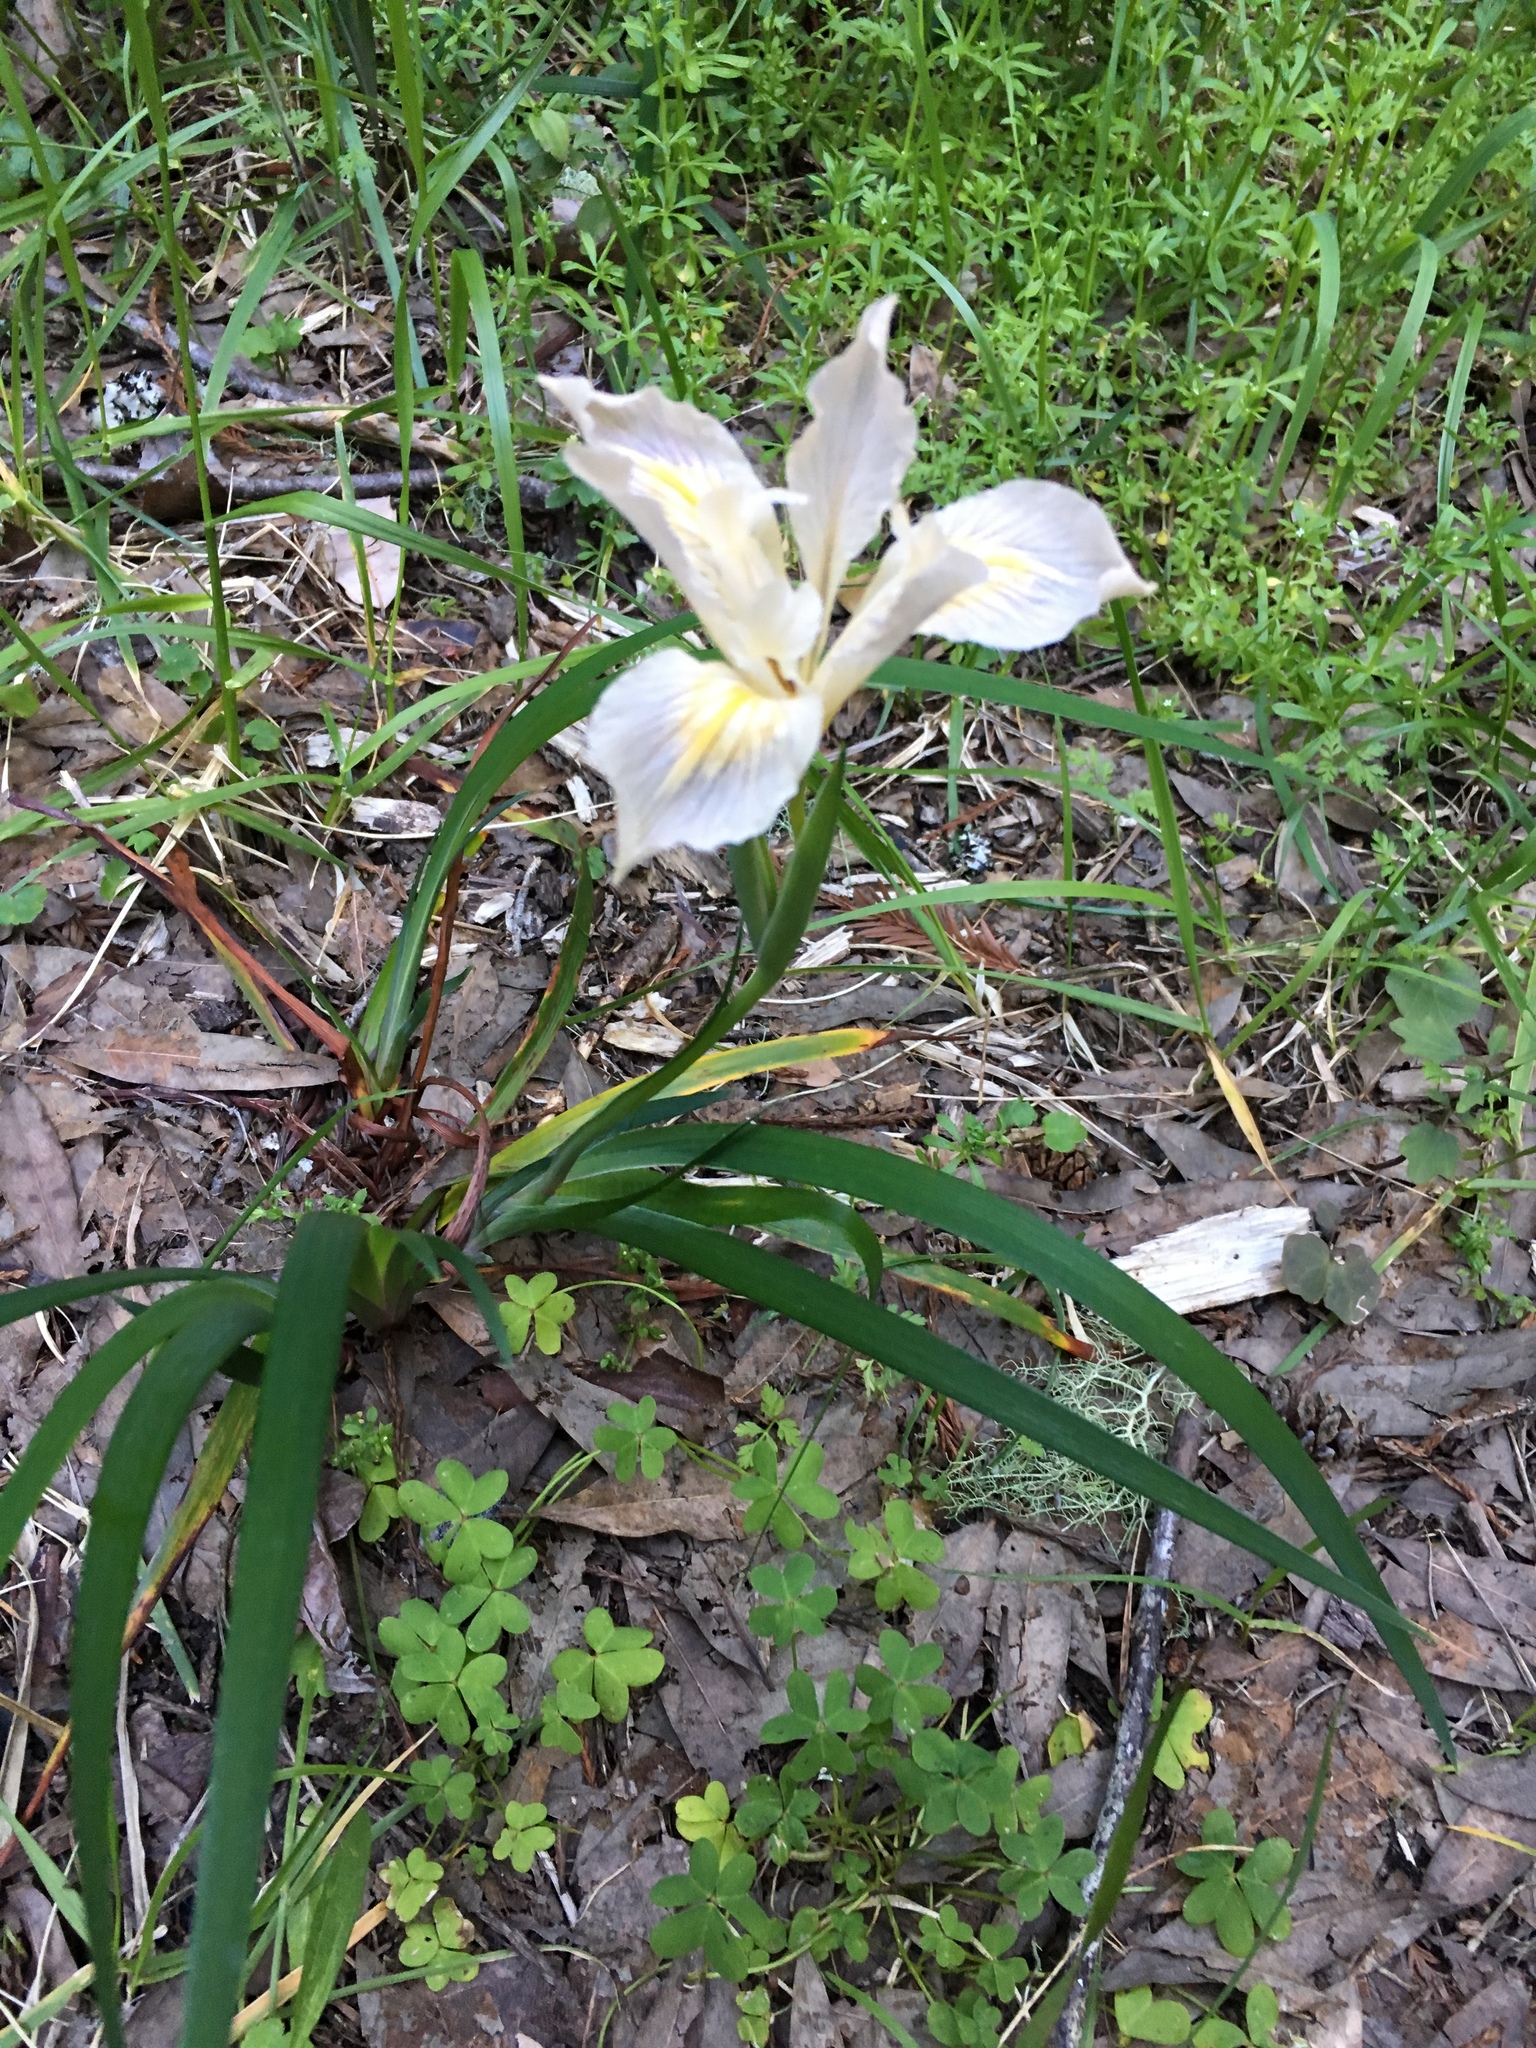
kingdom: Plantae
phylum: Tracheophyta
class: Liliopsida
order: Asparagales
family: Iridaceae
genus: Iris
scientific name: Iris douglasiana
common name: Marin iris
